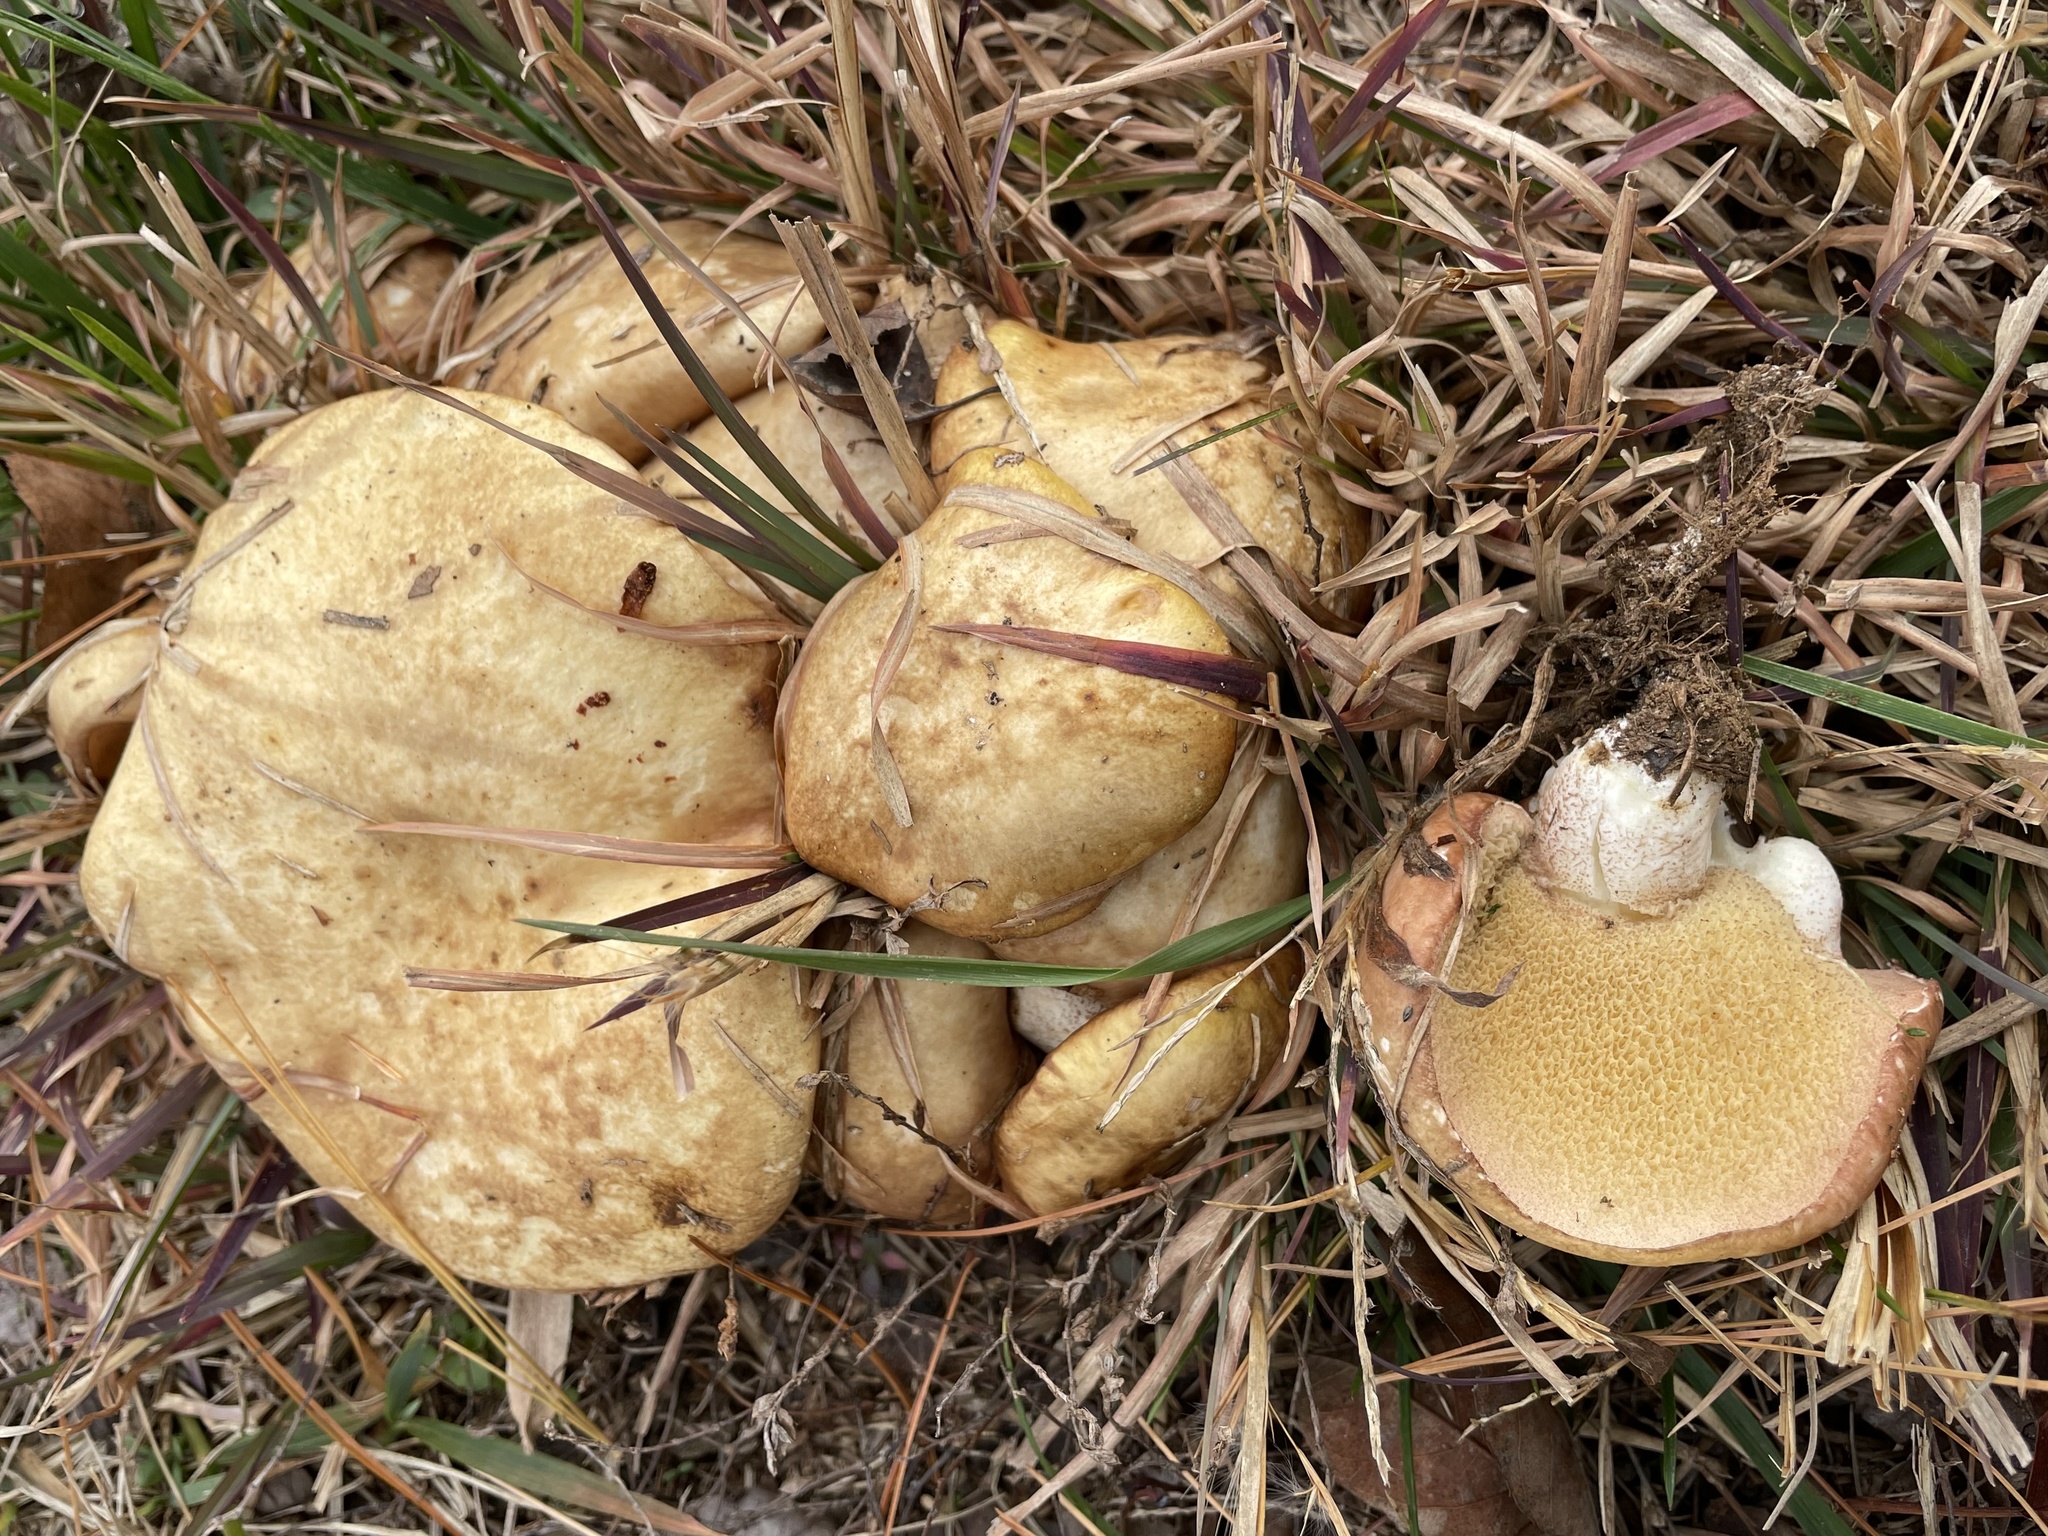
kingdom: Fungi
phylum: Basidiomycota
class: Agaricomycetes
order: Boletales
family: Suillaceae
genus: Fuscoboletinus
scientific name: Fuscoboletinus weaverae
